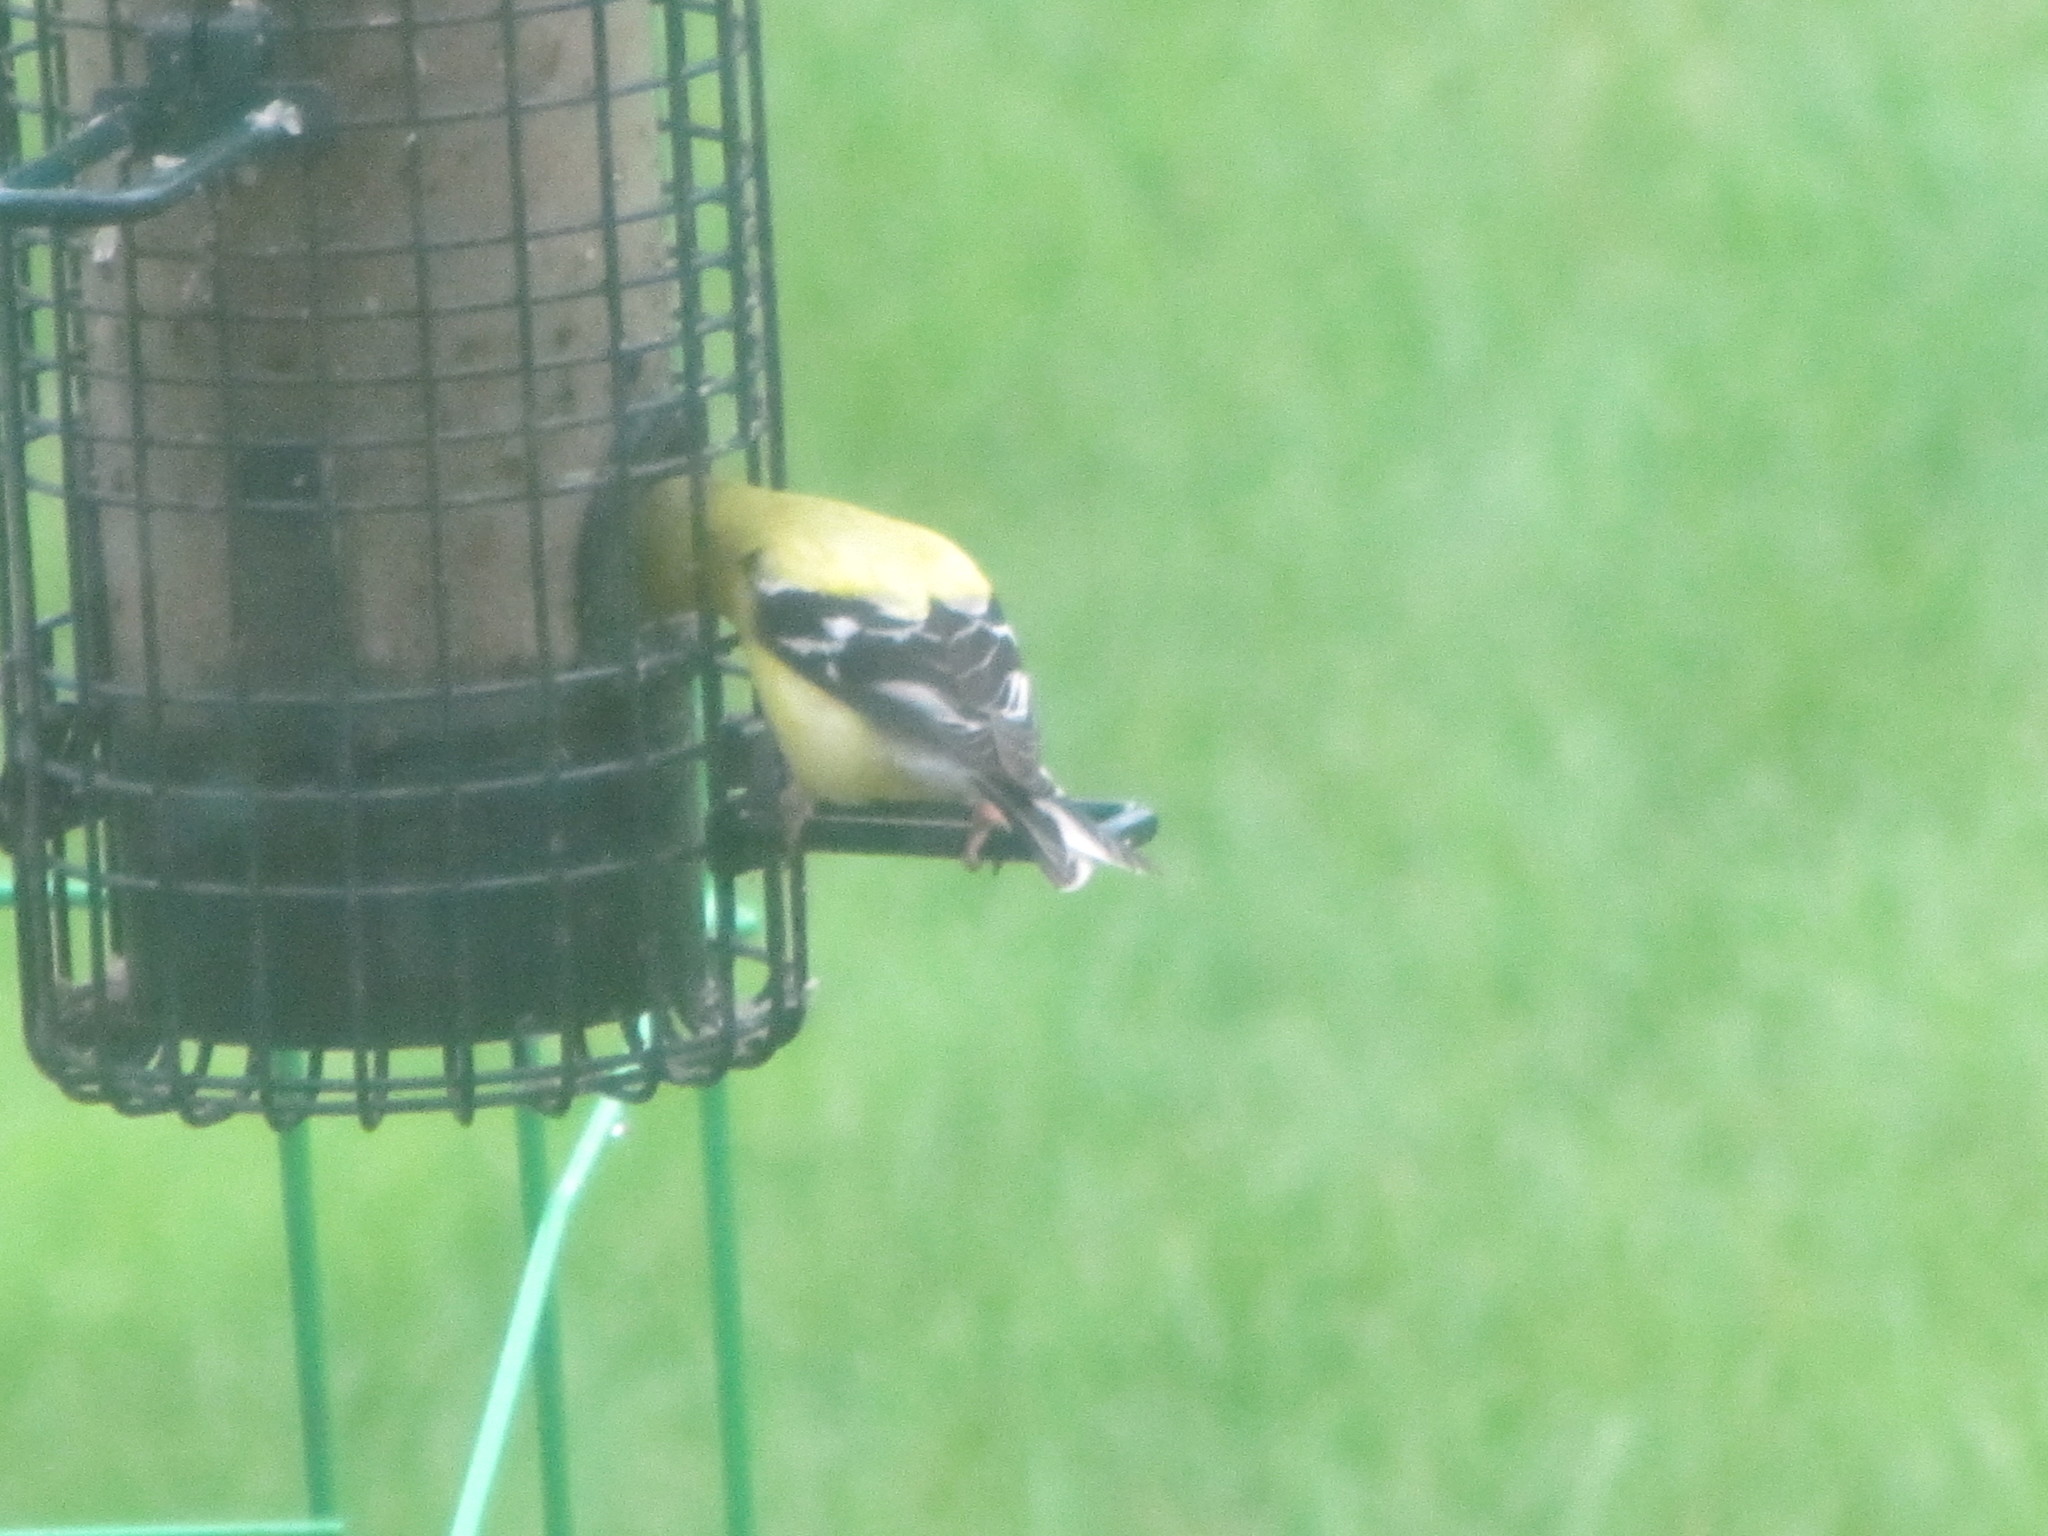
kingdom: Animalia
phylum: Chordata
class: Aves
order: Passeriformes
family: Fringillidae
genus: Spinus
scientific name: Spinus tristis
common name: American goldfinch
